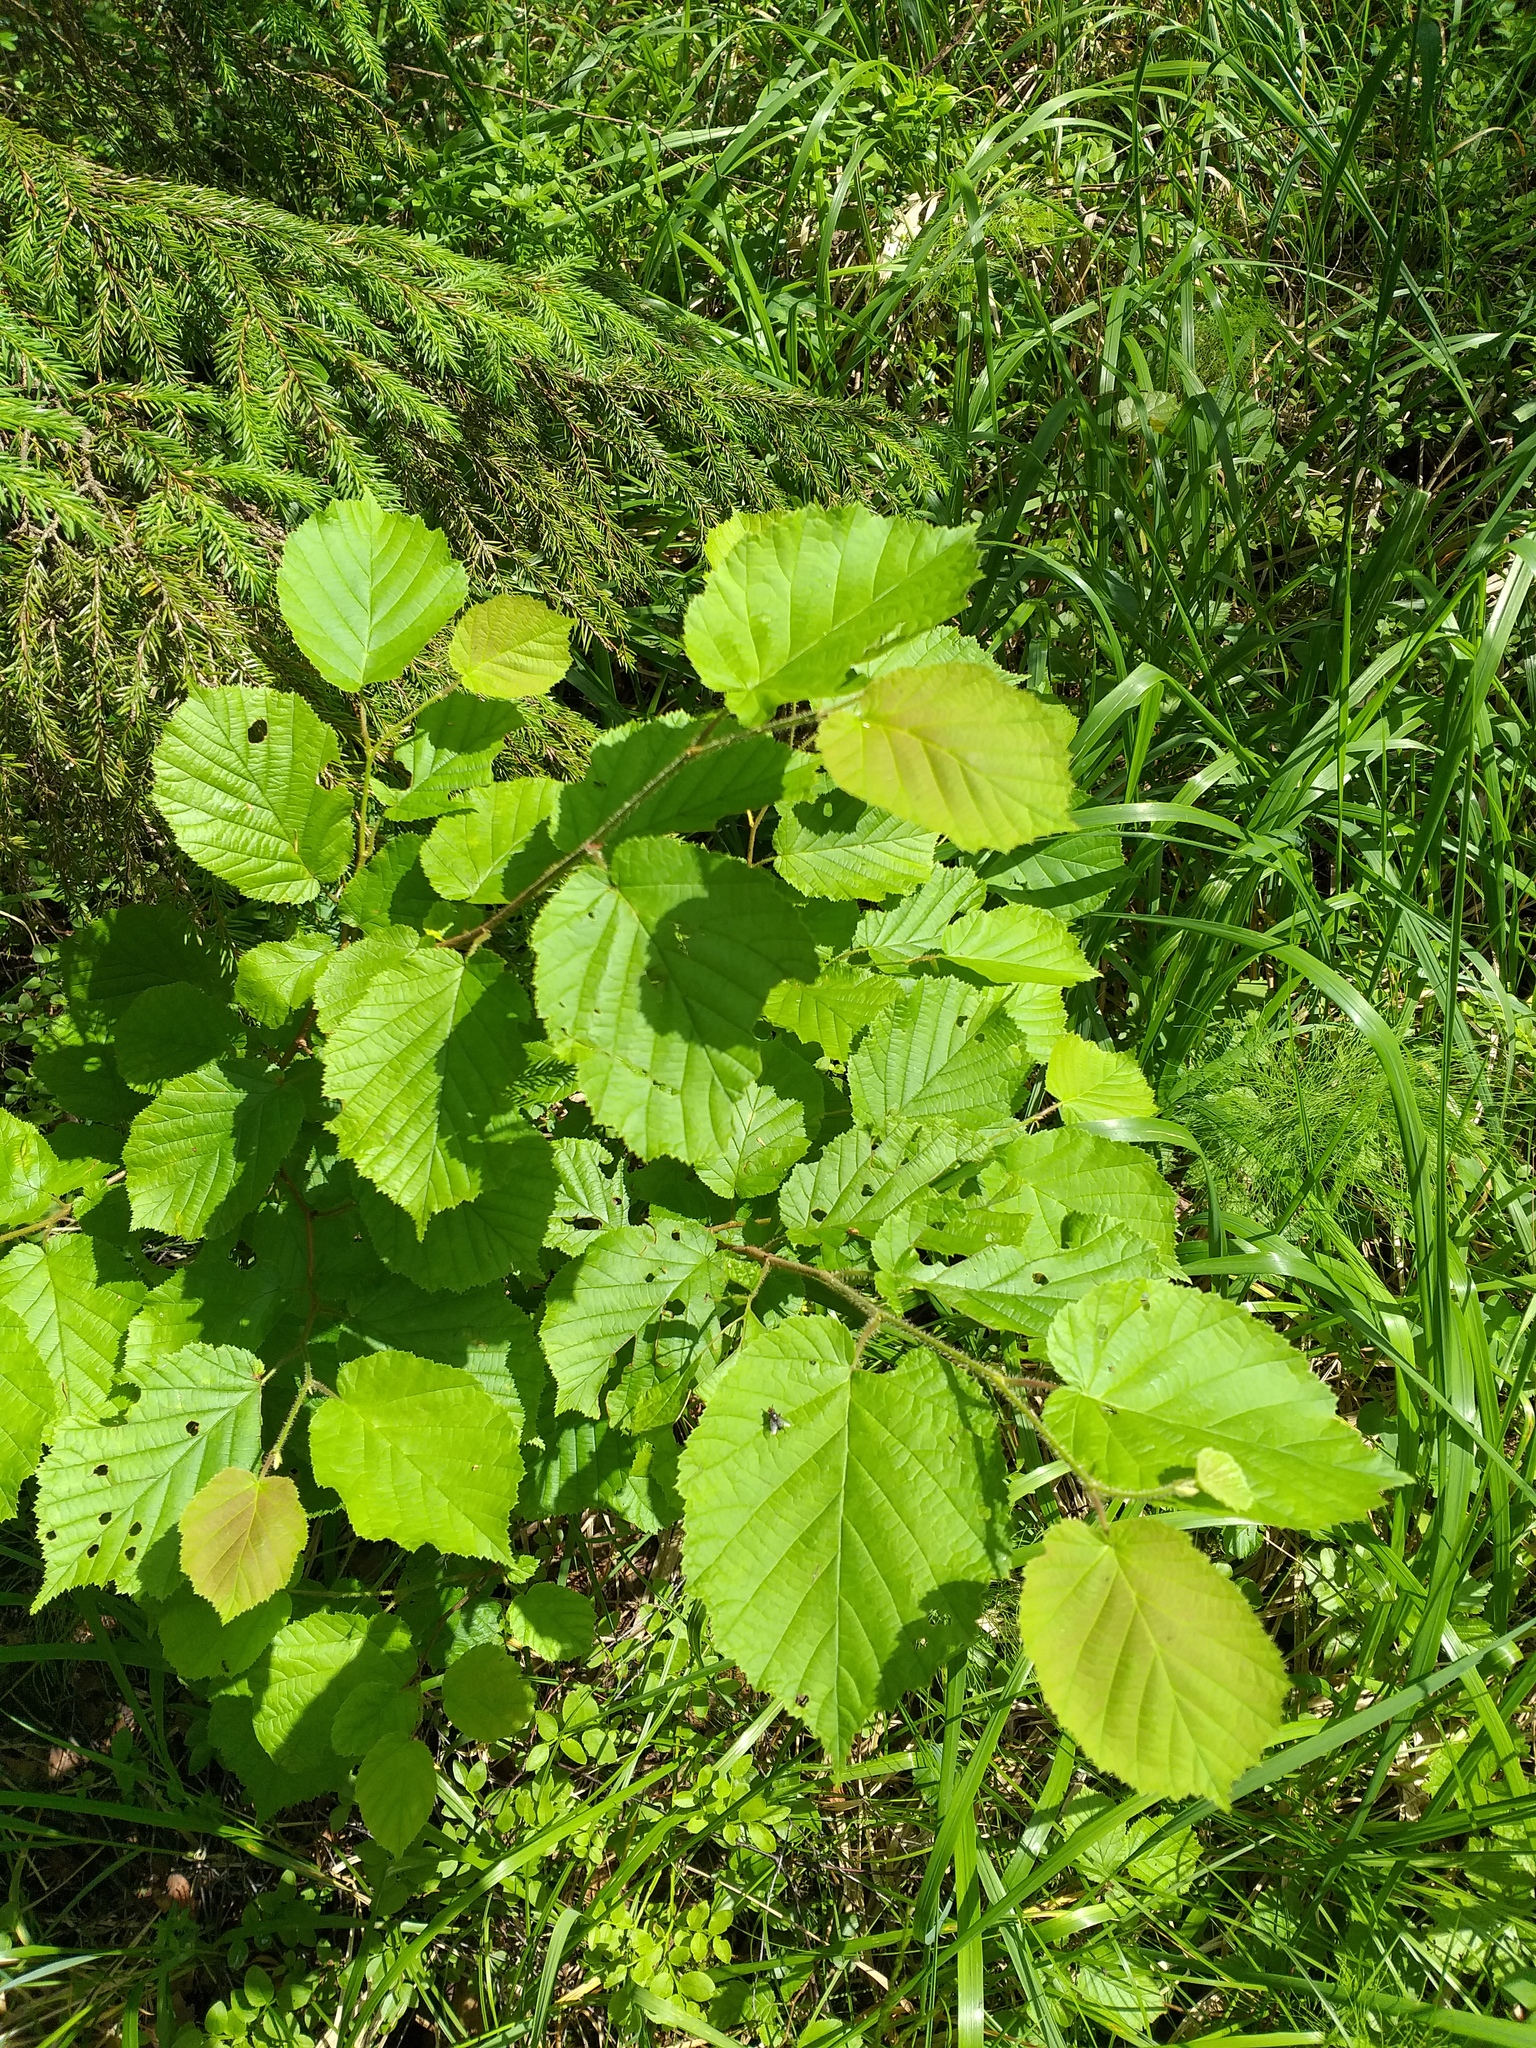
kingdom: Plantae
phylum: Tracheophyta
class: Magnoliopsida
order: Fagales
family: Betulaceae
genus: Corylus
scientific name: Corylus avellana
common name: European hazel
